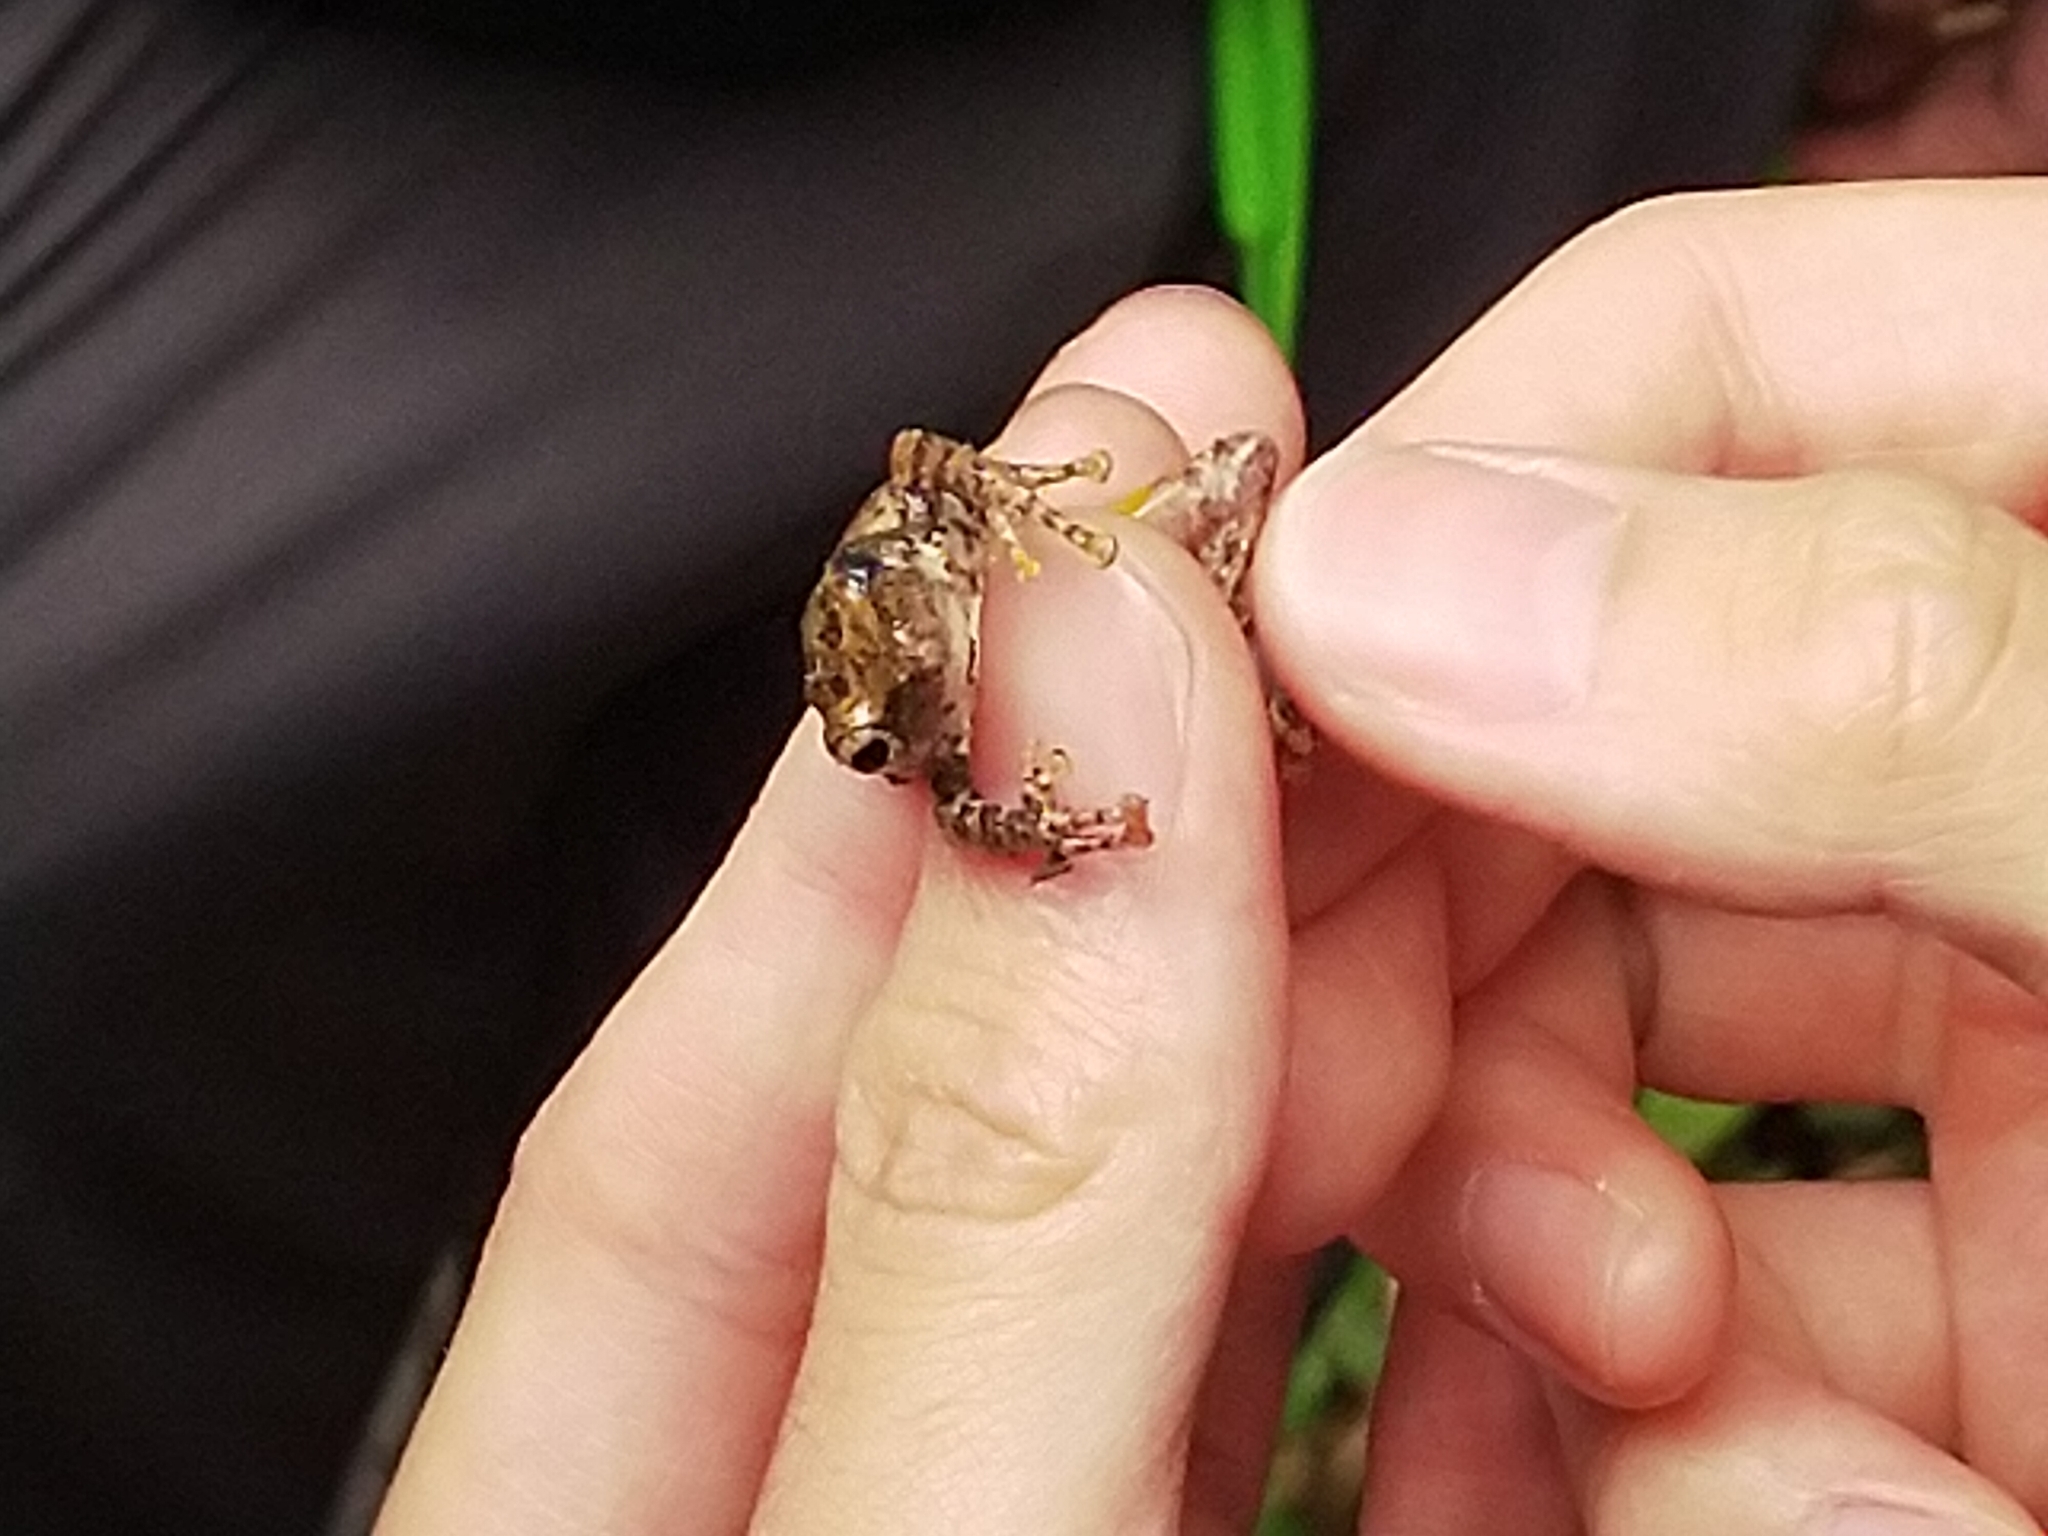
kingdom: Animalia
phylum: Chordata
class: Amphibia
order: Anura
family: Rhacophoridae
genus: Kurixalus
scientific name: Kurixalus idiootocus
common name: Temple treefrog
